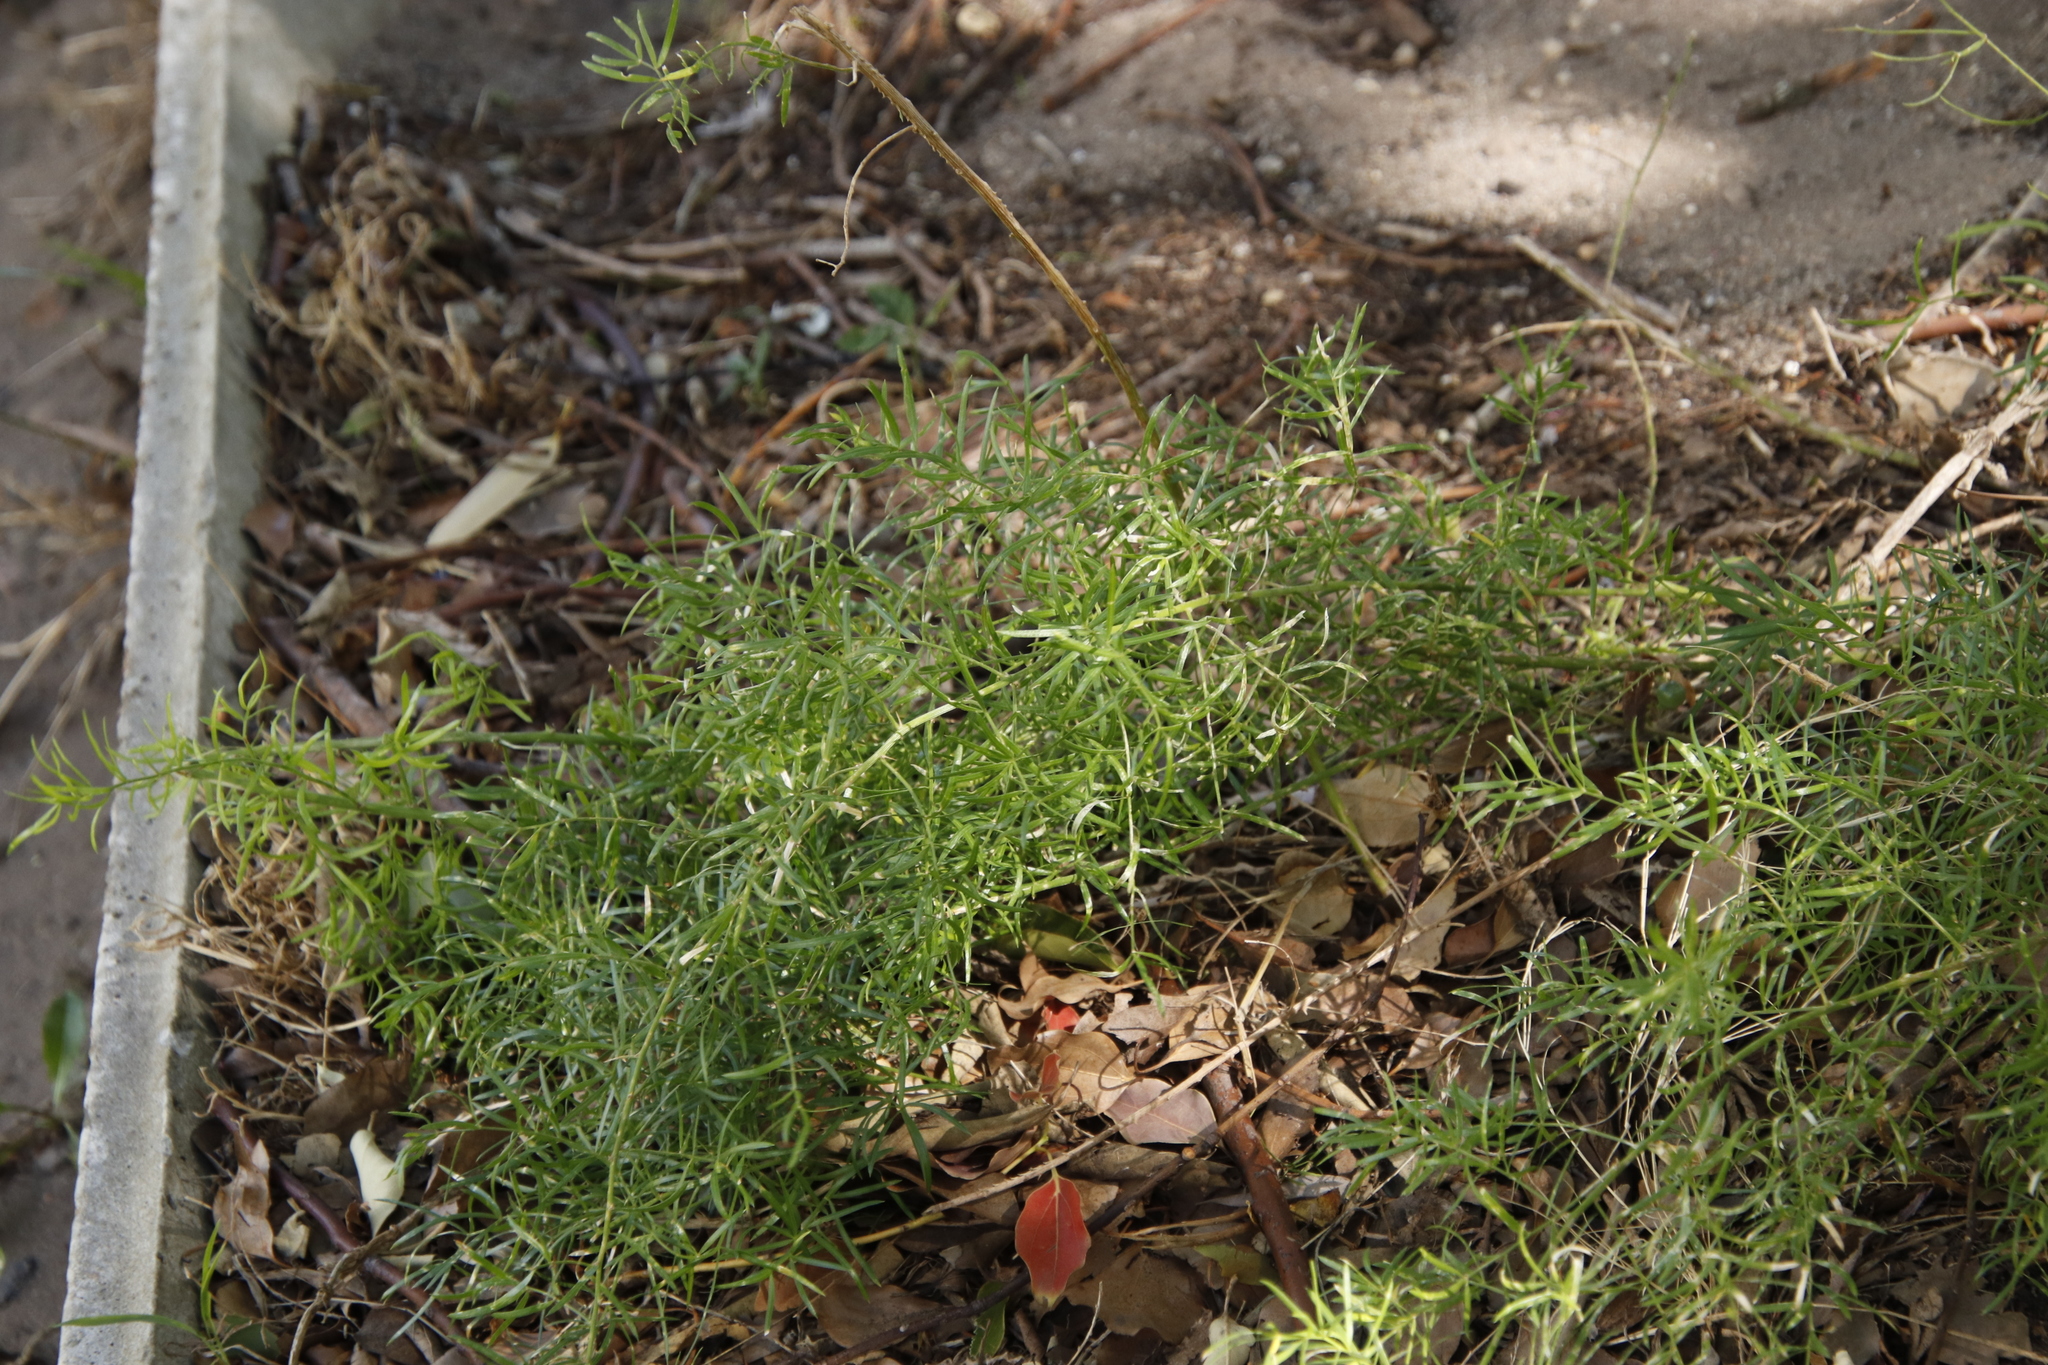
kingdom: Plantae
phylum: Tracheophyta
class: Liliopsida
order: Asparagales
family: Asparagaceae
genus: Asparagus
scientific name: Asparagus aethiopicus
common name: Sprenger's asparagus fern
